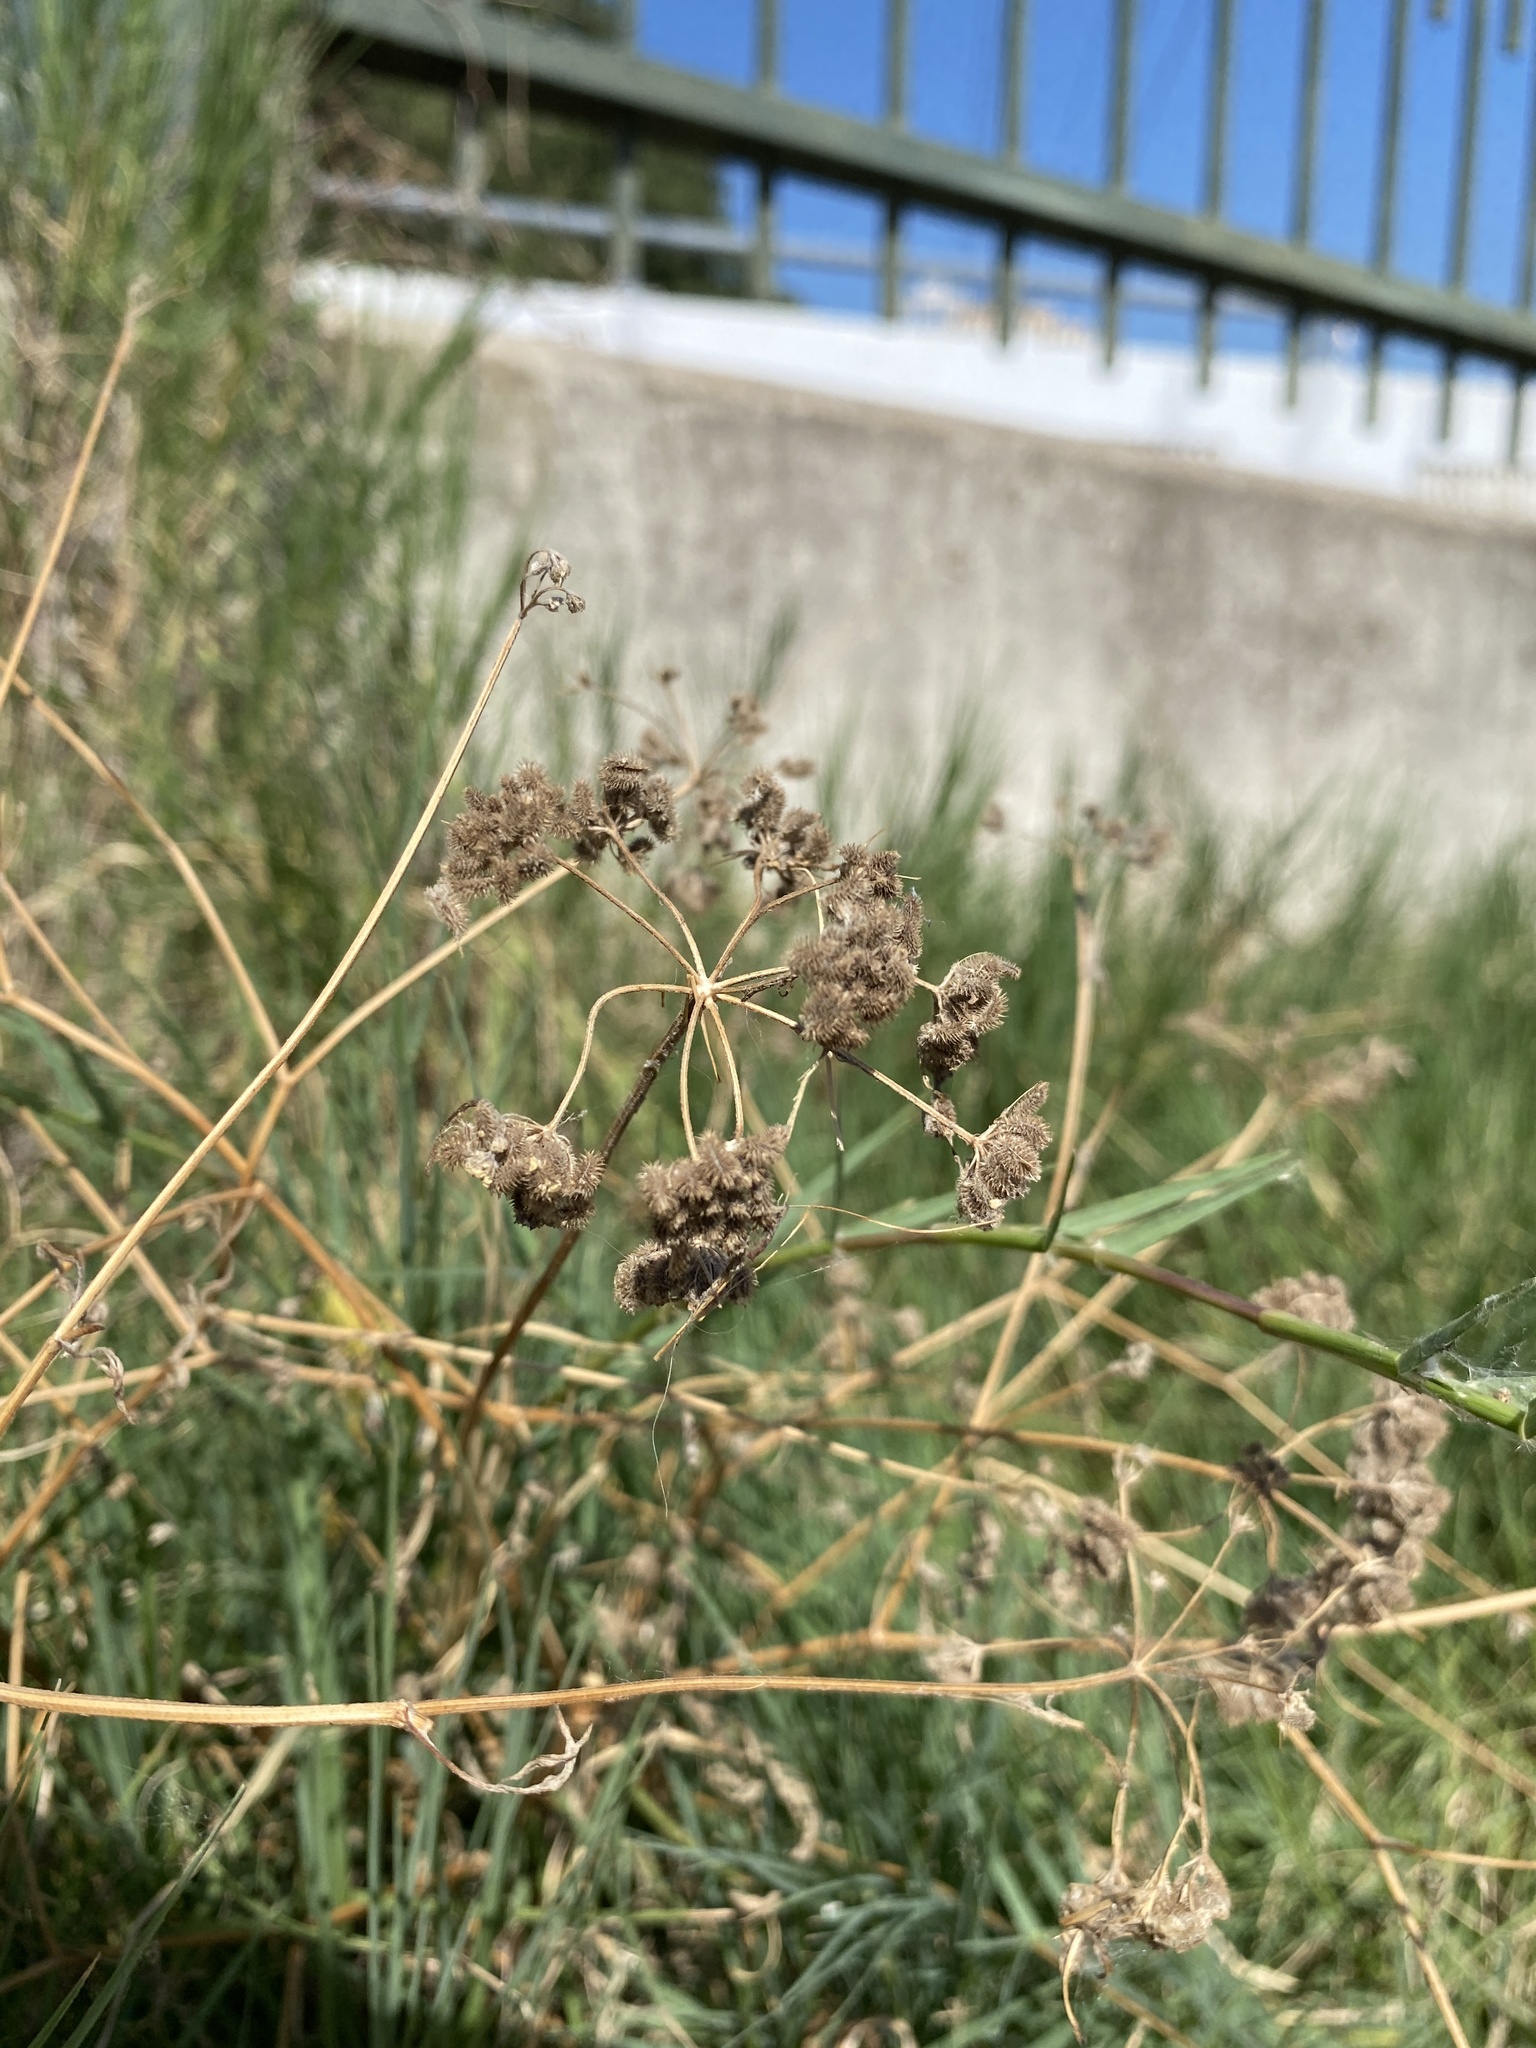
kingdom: Plantae
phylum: Tracheophyta
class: Magnoliopsida
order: Apiales
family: Apiaceae
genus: Torilis
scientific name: Torilis arvensis
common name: Spreading hedge-parsley
